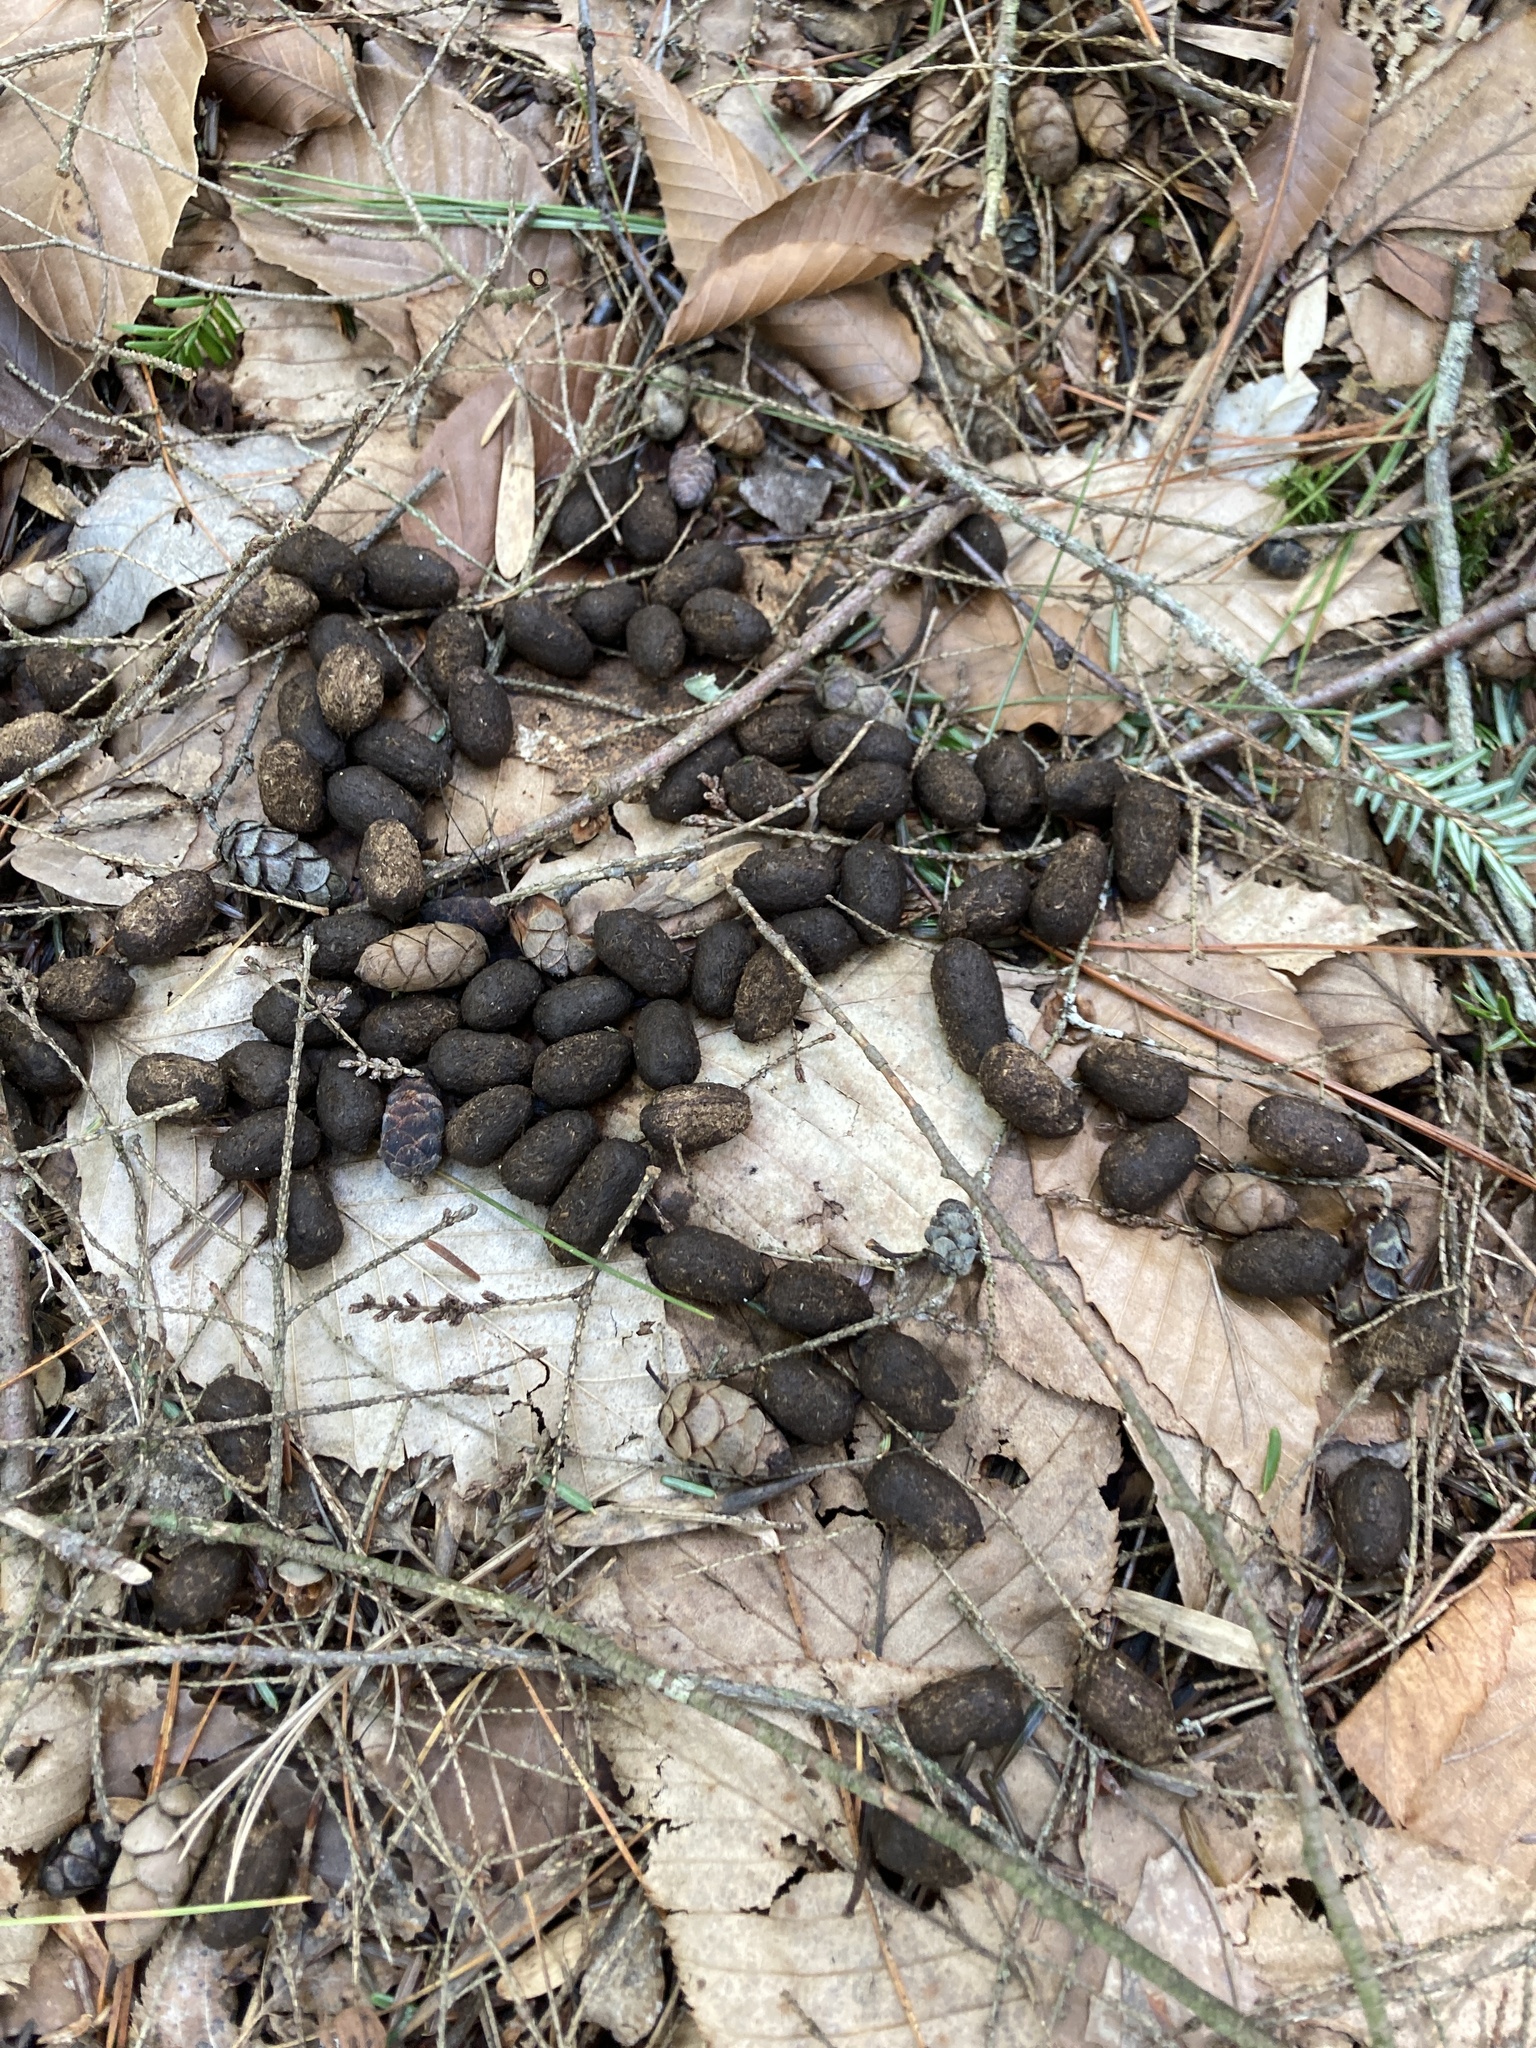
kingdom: Animalia
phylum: Chordata
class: Mammalia
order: Artiodactyla
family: Cervidae
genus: Odocoileus
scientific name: Odocoileus virginianus
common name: White-tailed deer
